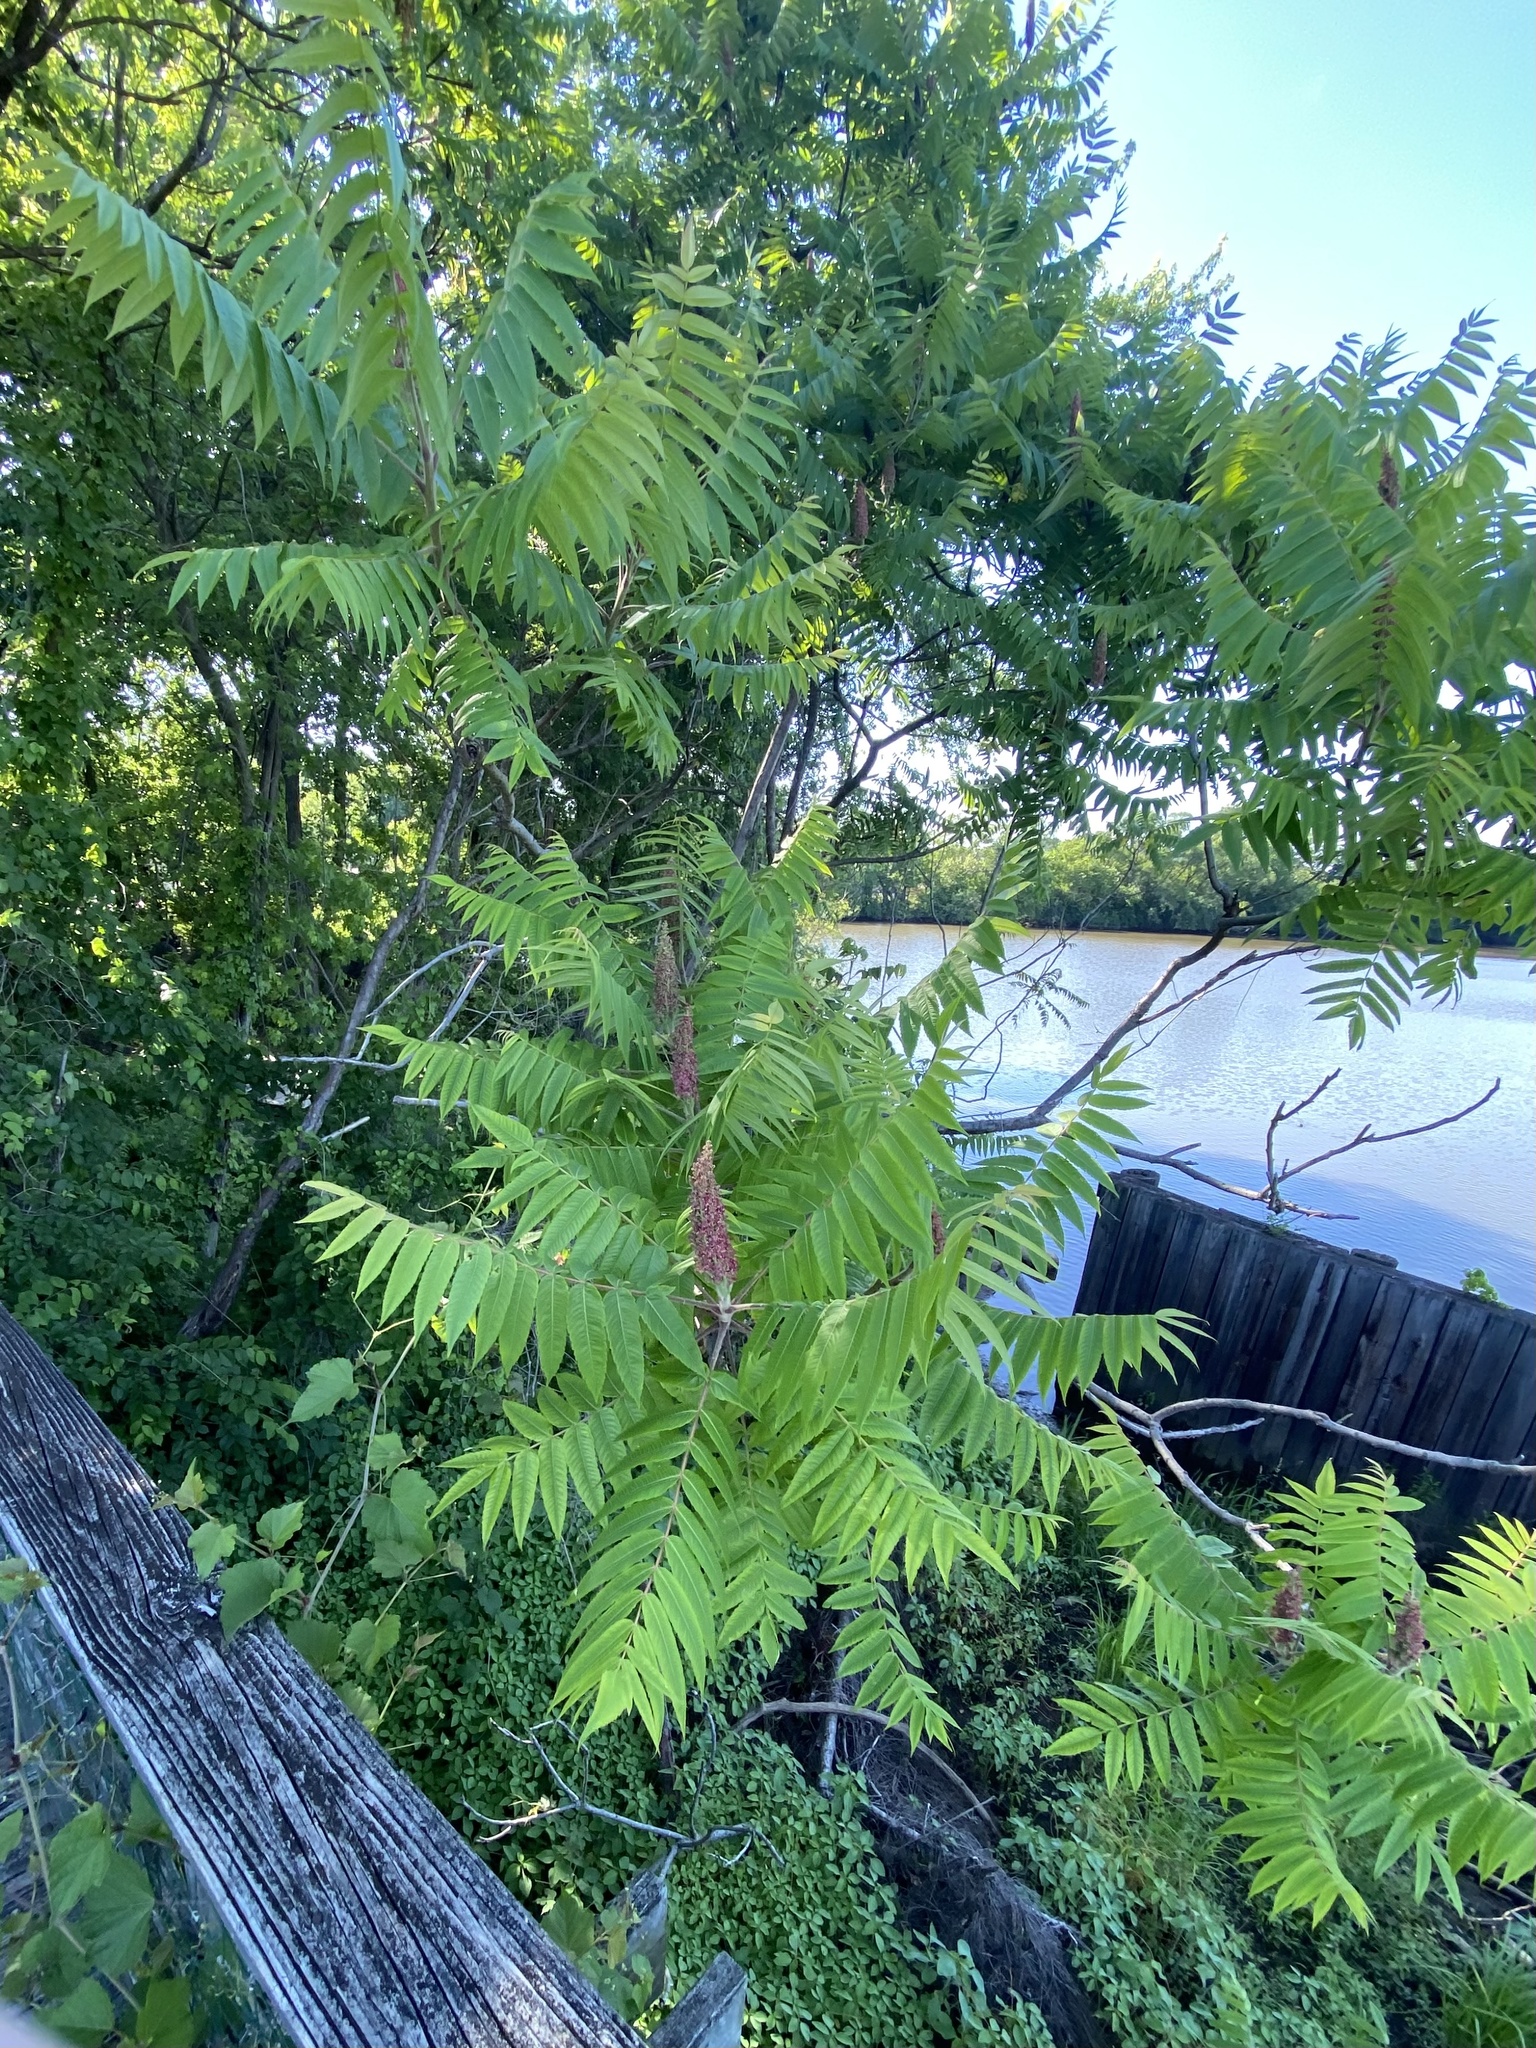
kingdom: Plantae
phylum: Tracheophyta
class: Magnoliopsida
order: Sapindales
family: Anacardiaceae
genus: Rhus
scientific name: Rhus typhina
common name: Staghorn sumac
